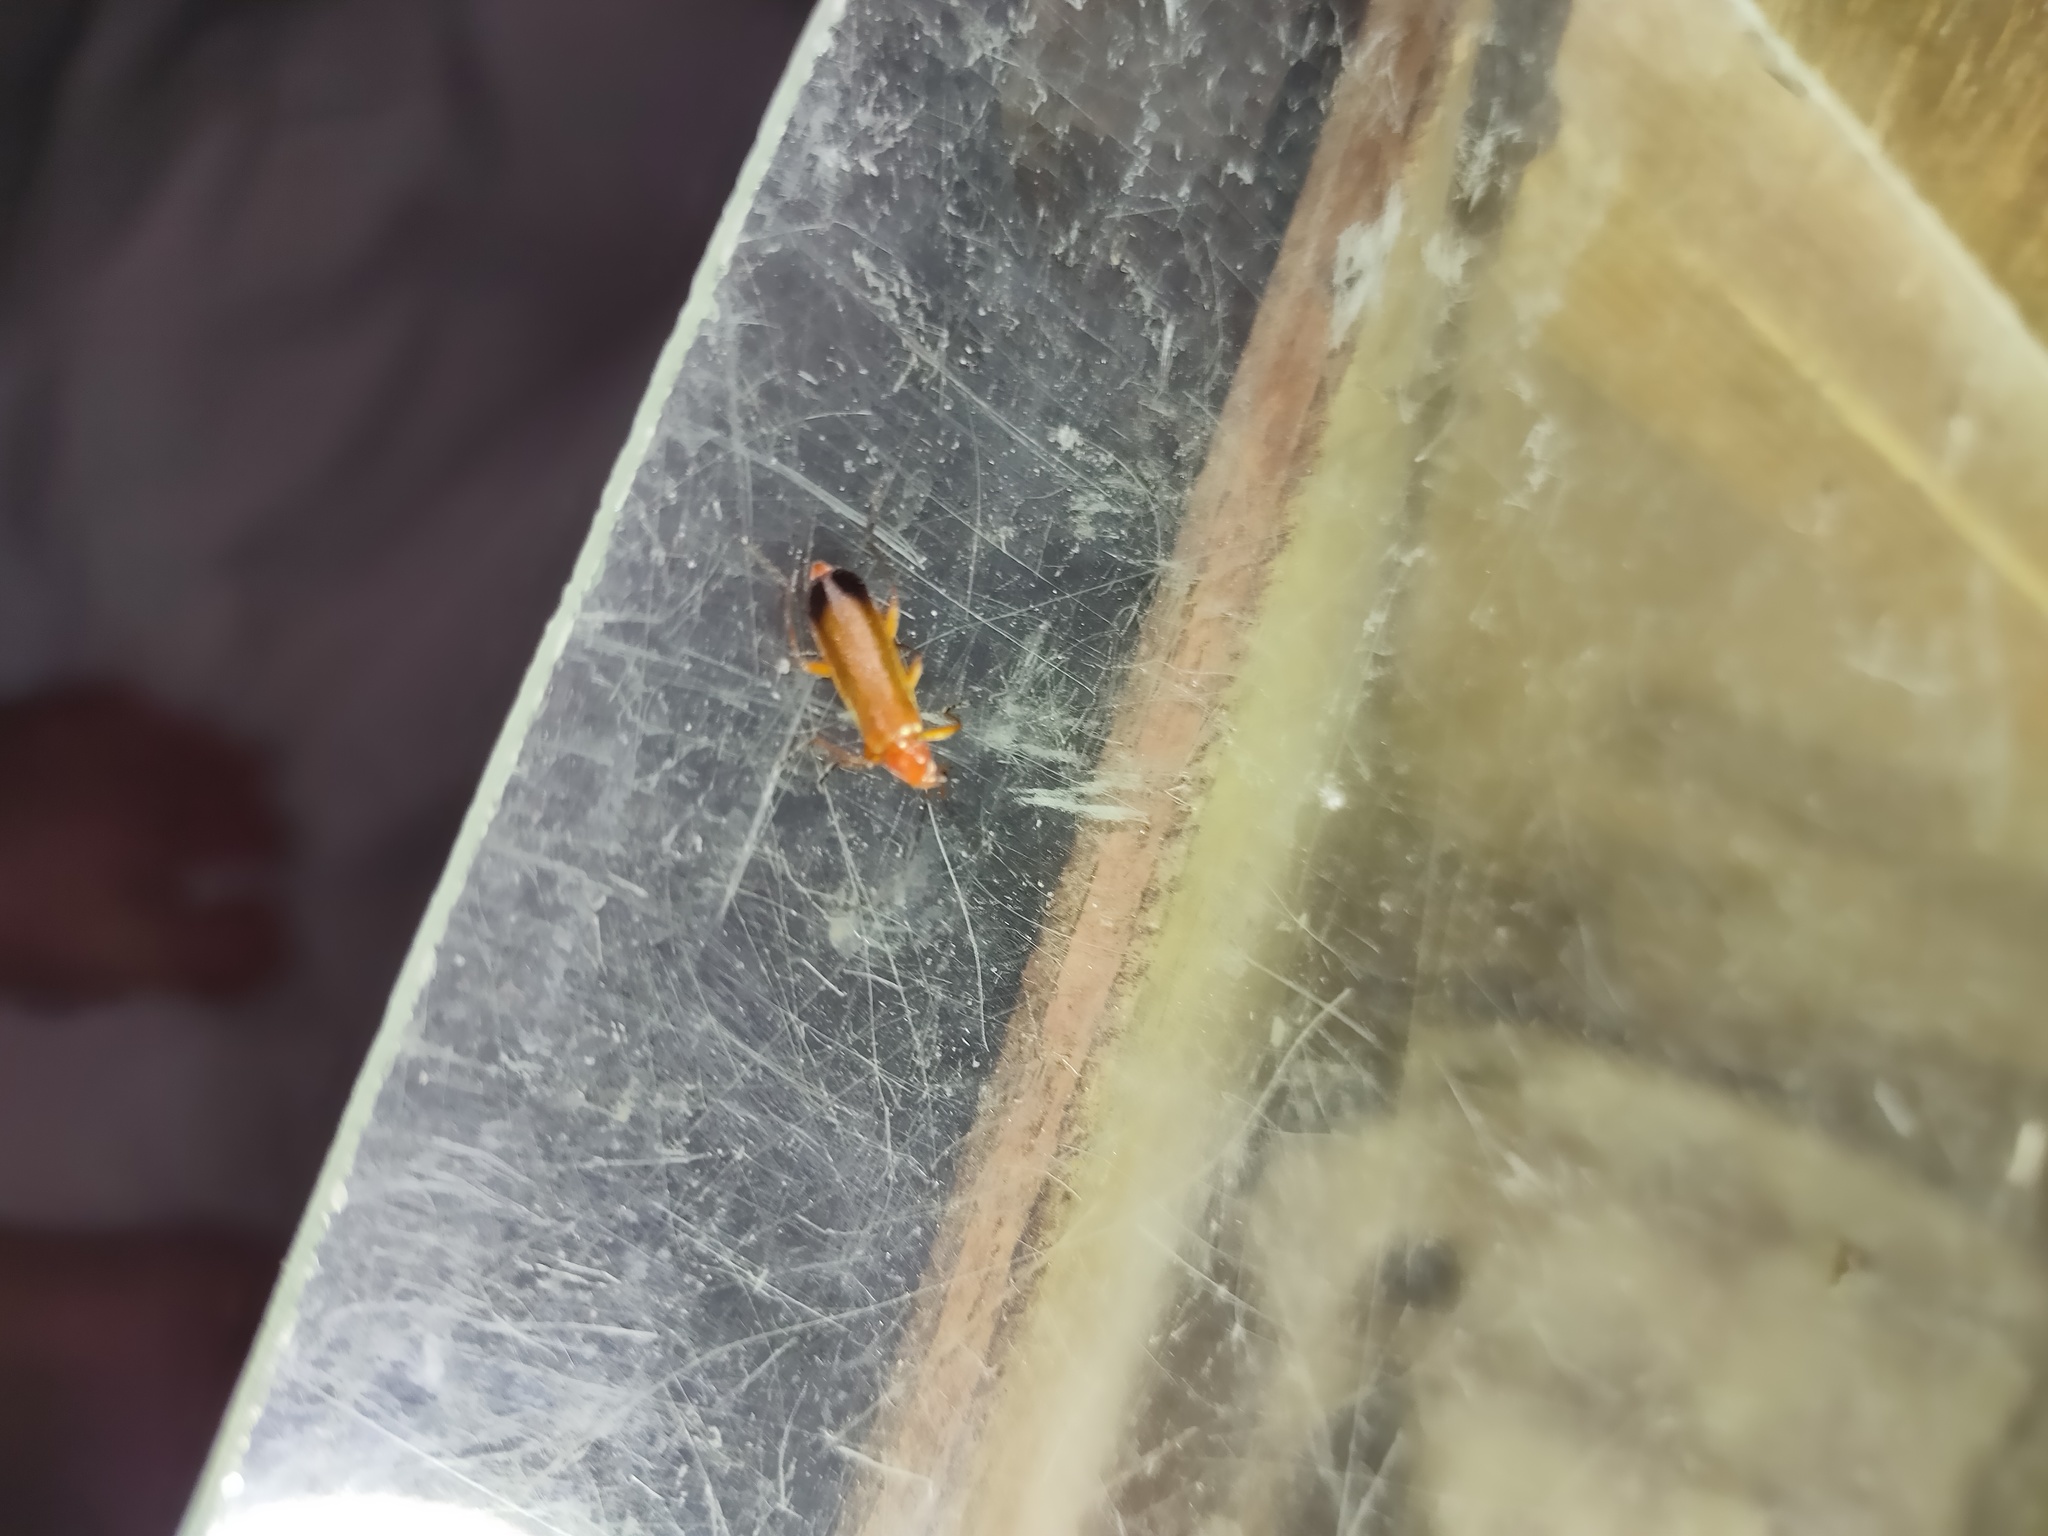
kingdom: Animalia
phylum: Arthropoda
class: Insecta
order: Coleoptera
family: Cantharidae
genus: Rhagonycha
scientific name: Rhagonycha fulva
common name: Common red soldier beetle
